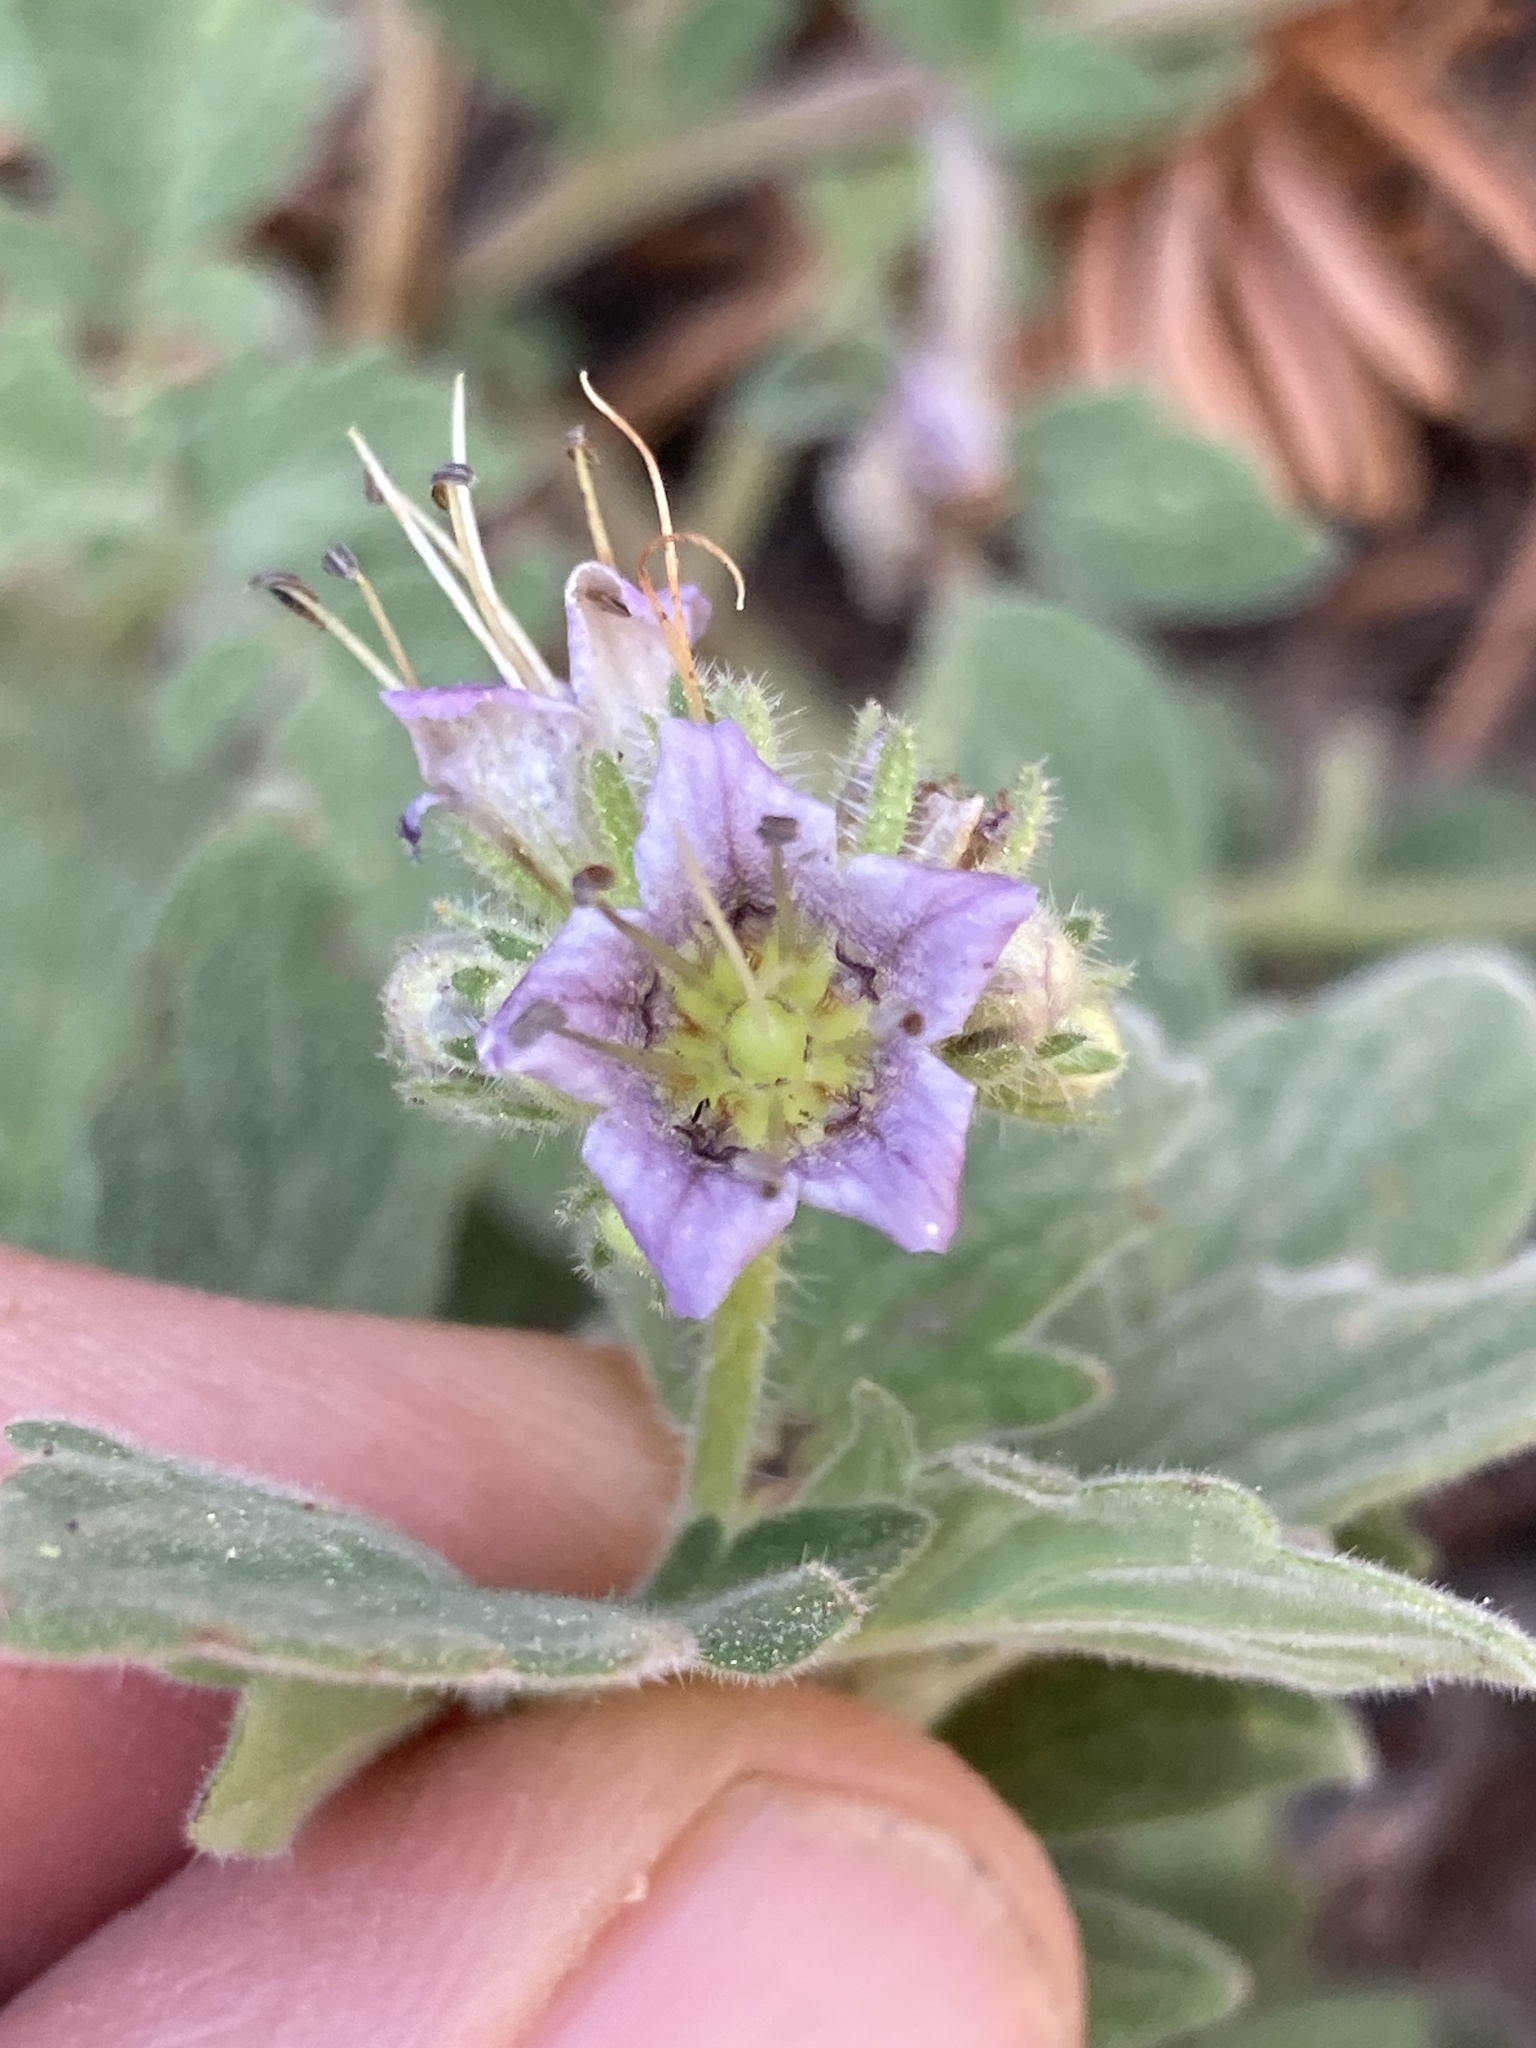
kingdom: Plantae
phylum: Tracheophyta
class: Magnoliopsida
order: Boraginales
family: Hydrophyllaceae
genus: Phacelia
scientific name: Phacelia hydrophylloides
